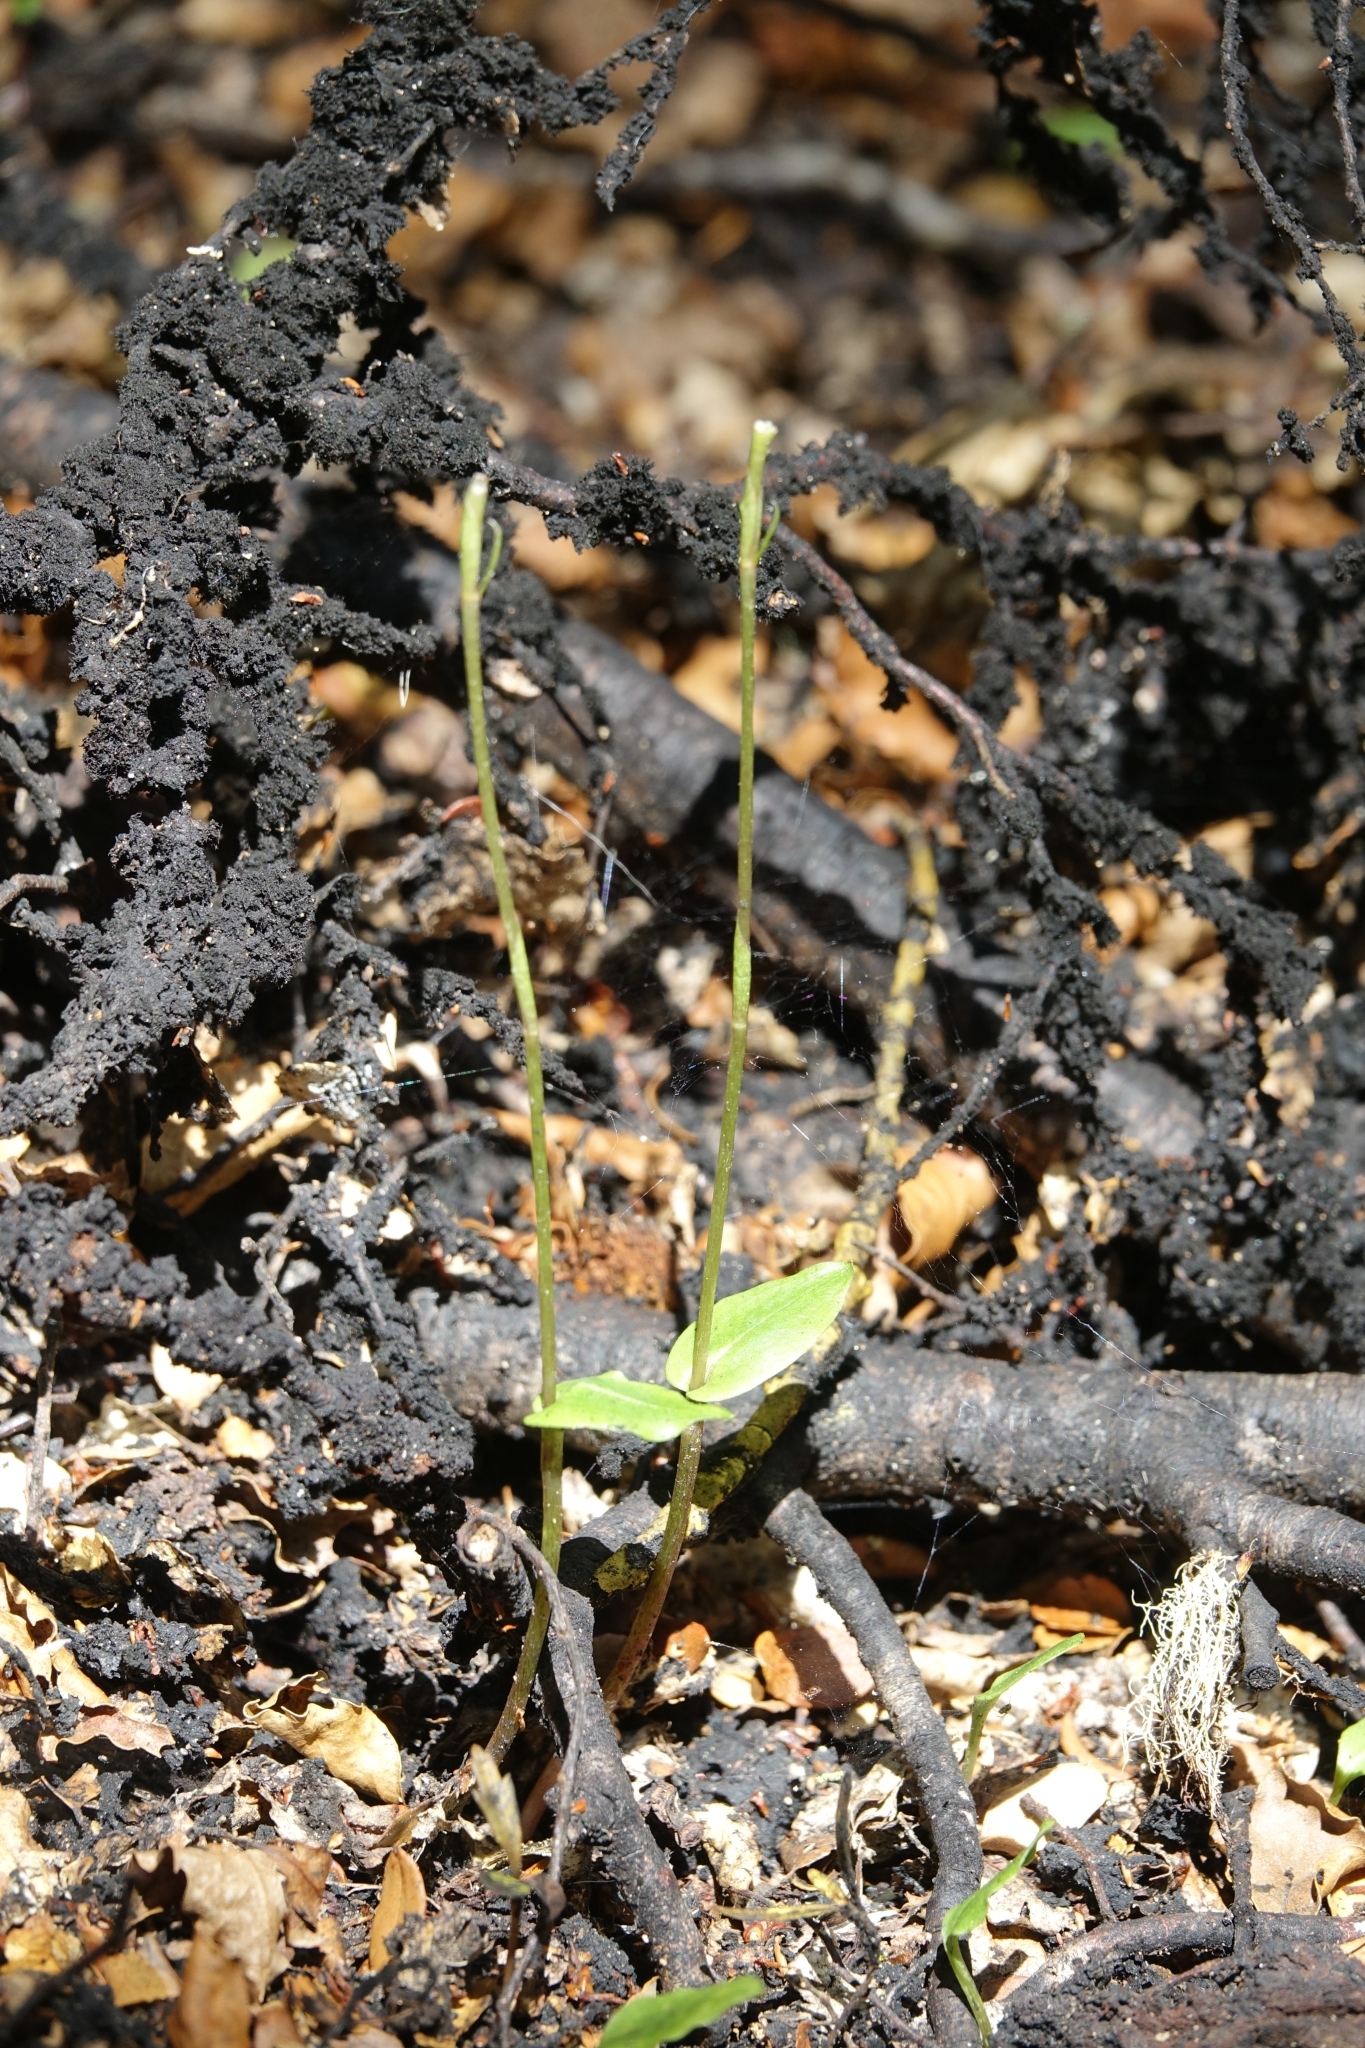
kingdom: Plantae
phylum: Tracheophyta
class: Liliopsida
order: Asparagales
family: Orchidaceae
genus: Adenochilus
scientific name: Adenochilus gracilis
